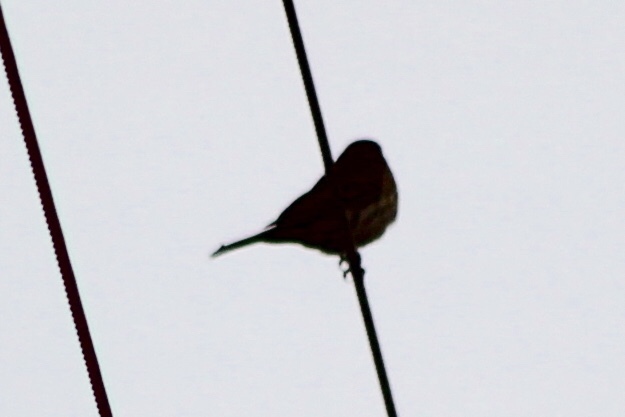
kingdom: Animalia
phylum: Chordata
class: Aves
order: Passeriformes
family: Fringillidae
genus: Haemorhous
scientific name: Haemorhous mexicanus
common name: House finch
